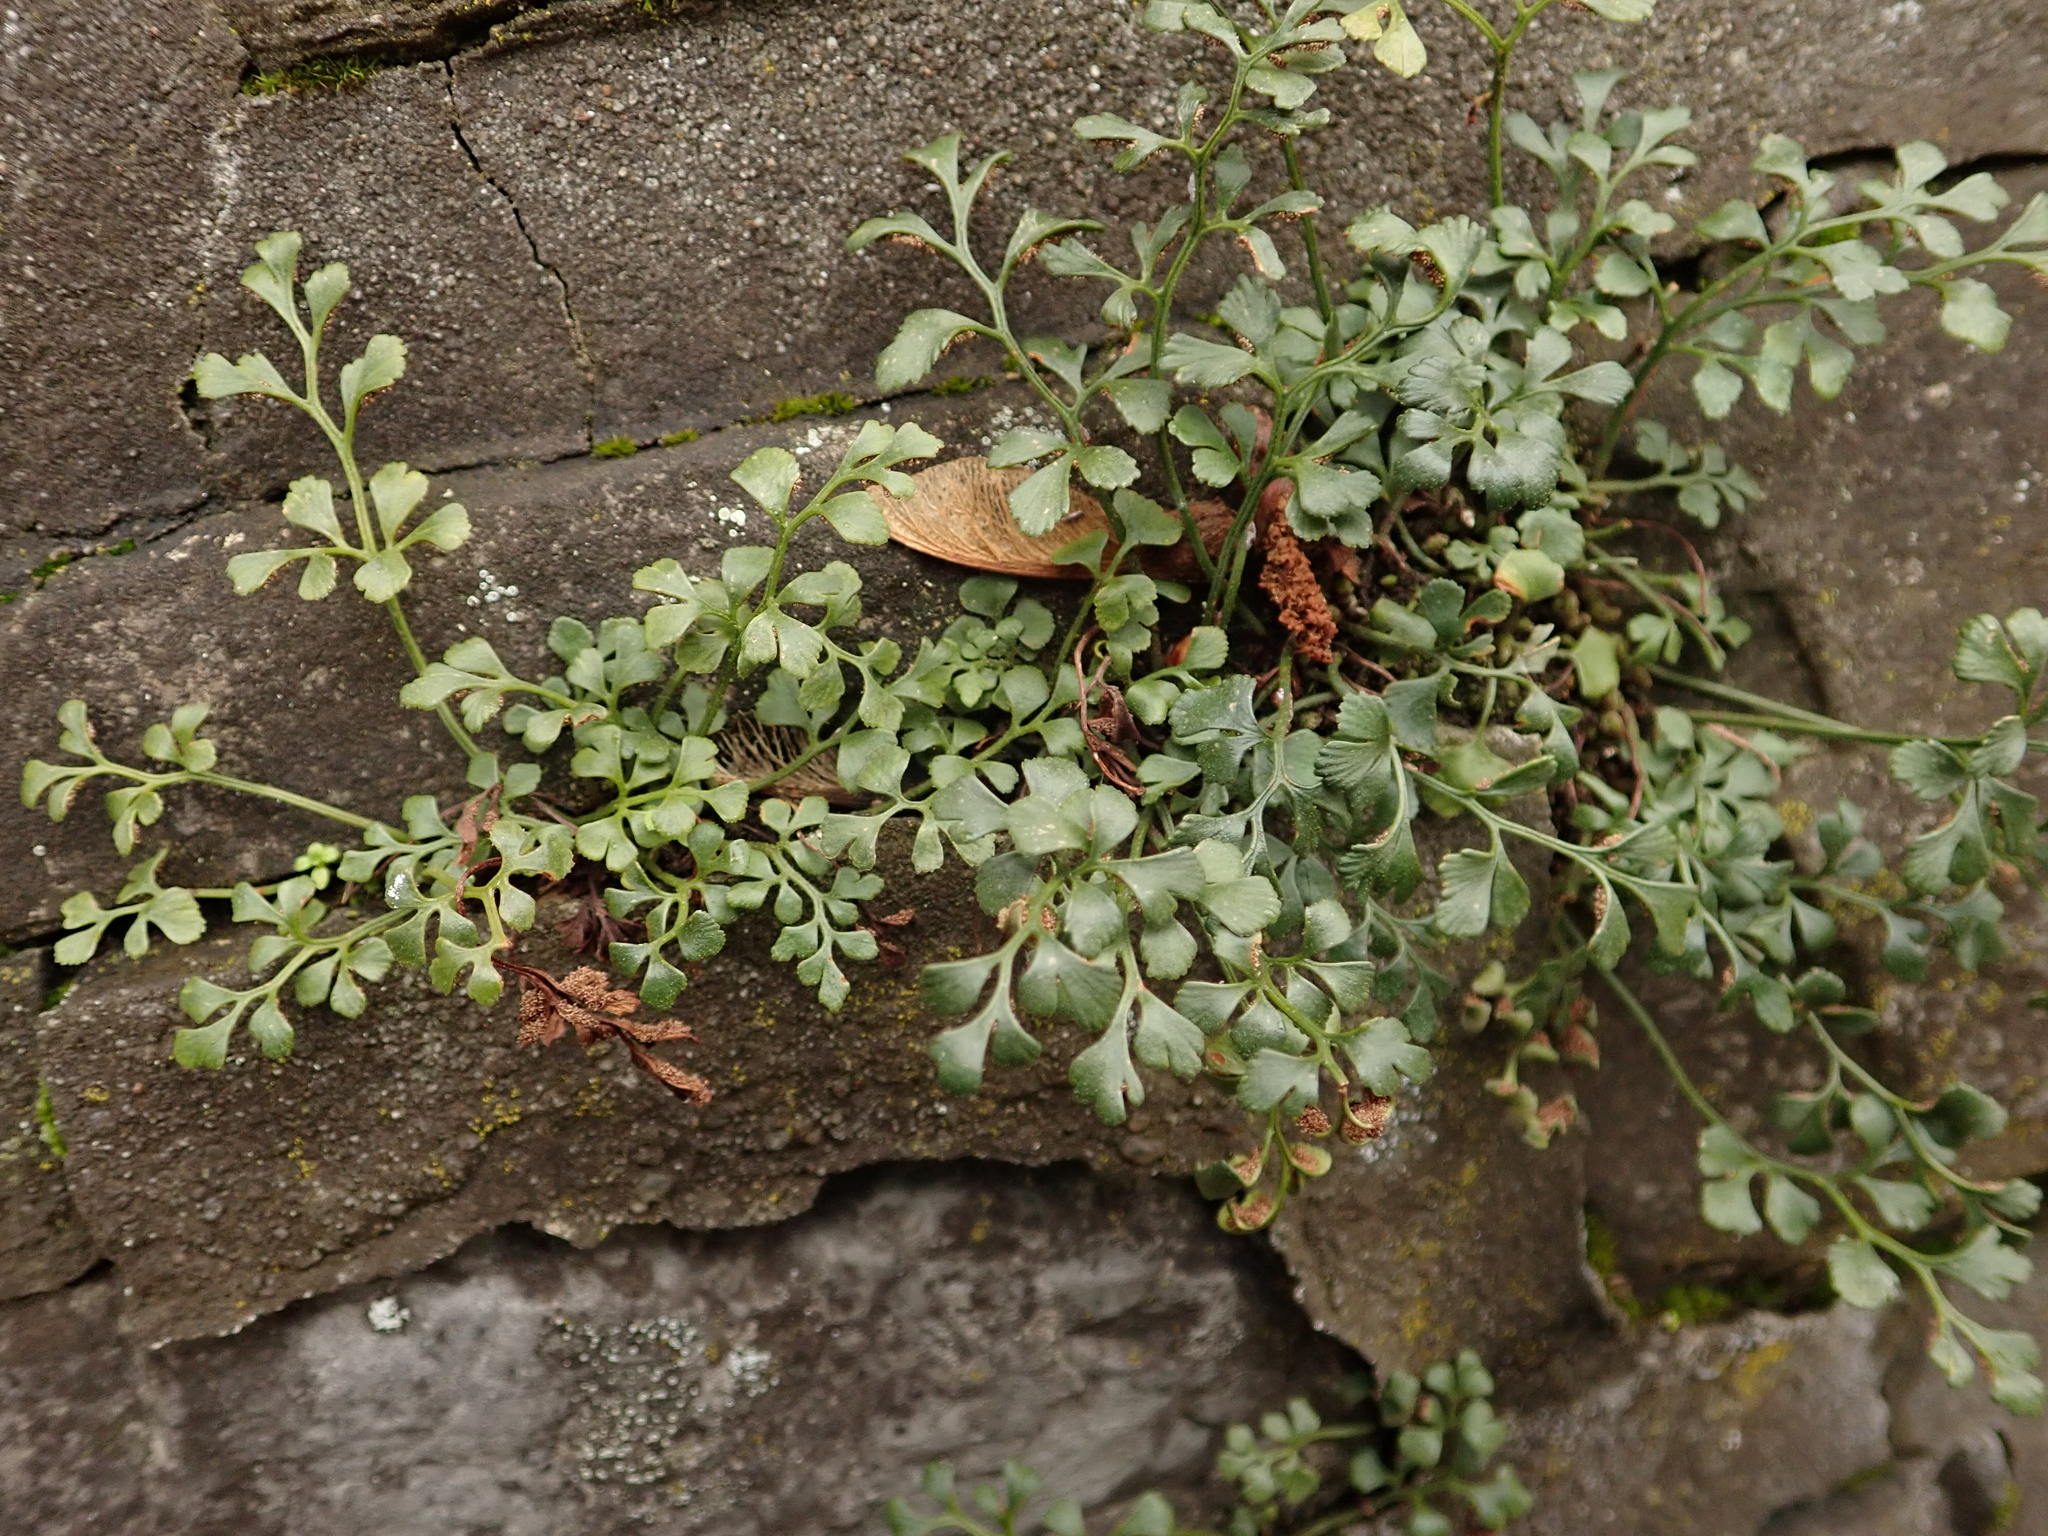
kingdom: Plantae
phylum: Tracheophyta
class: Polypodiopsida
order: Polypodiales
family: Aspleniaceae
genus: Asplenium
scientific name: Asplenium ruta-muraria
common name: Wall-rue
